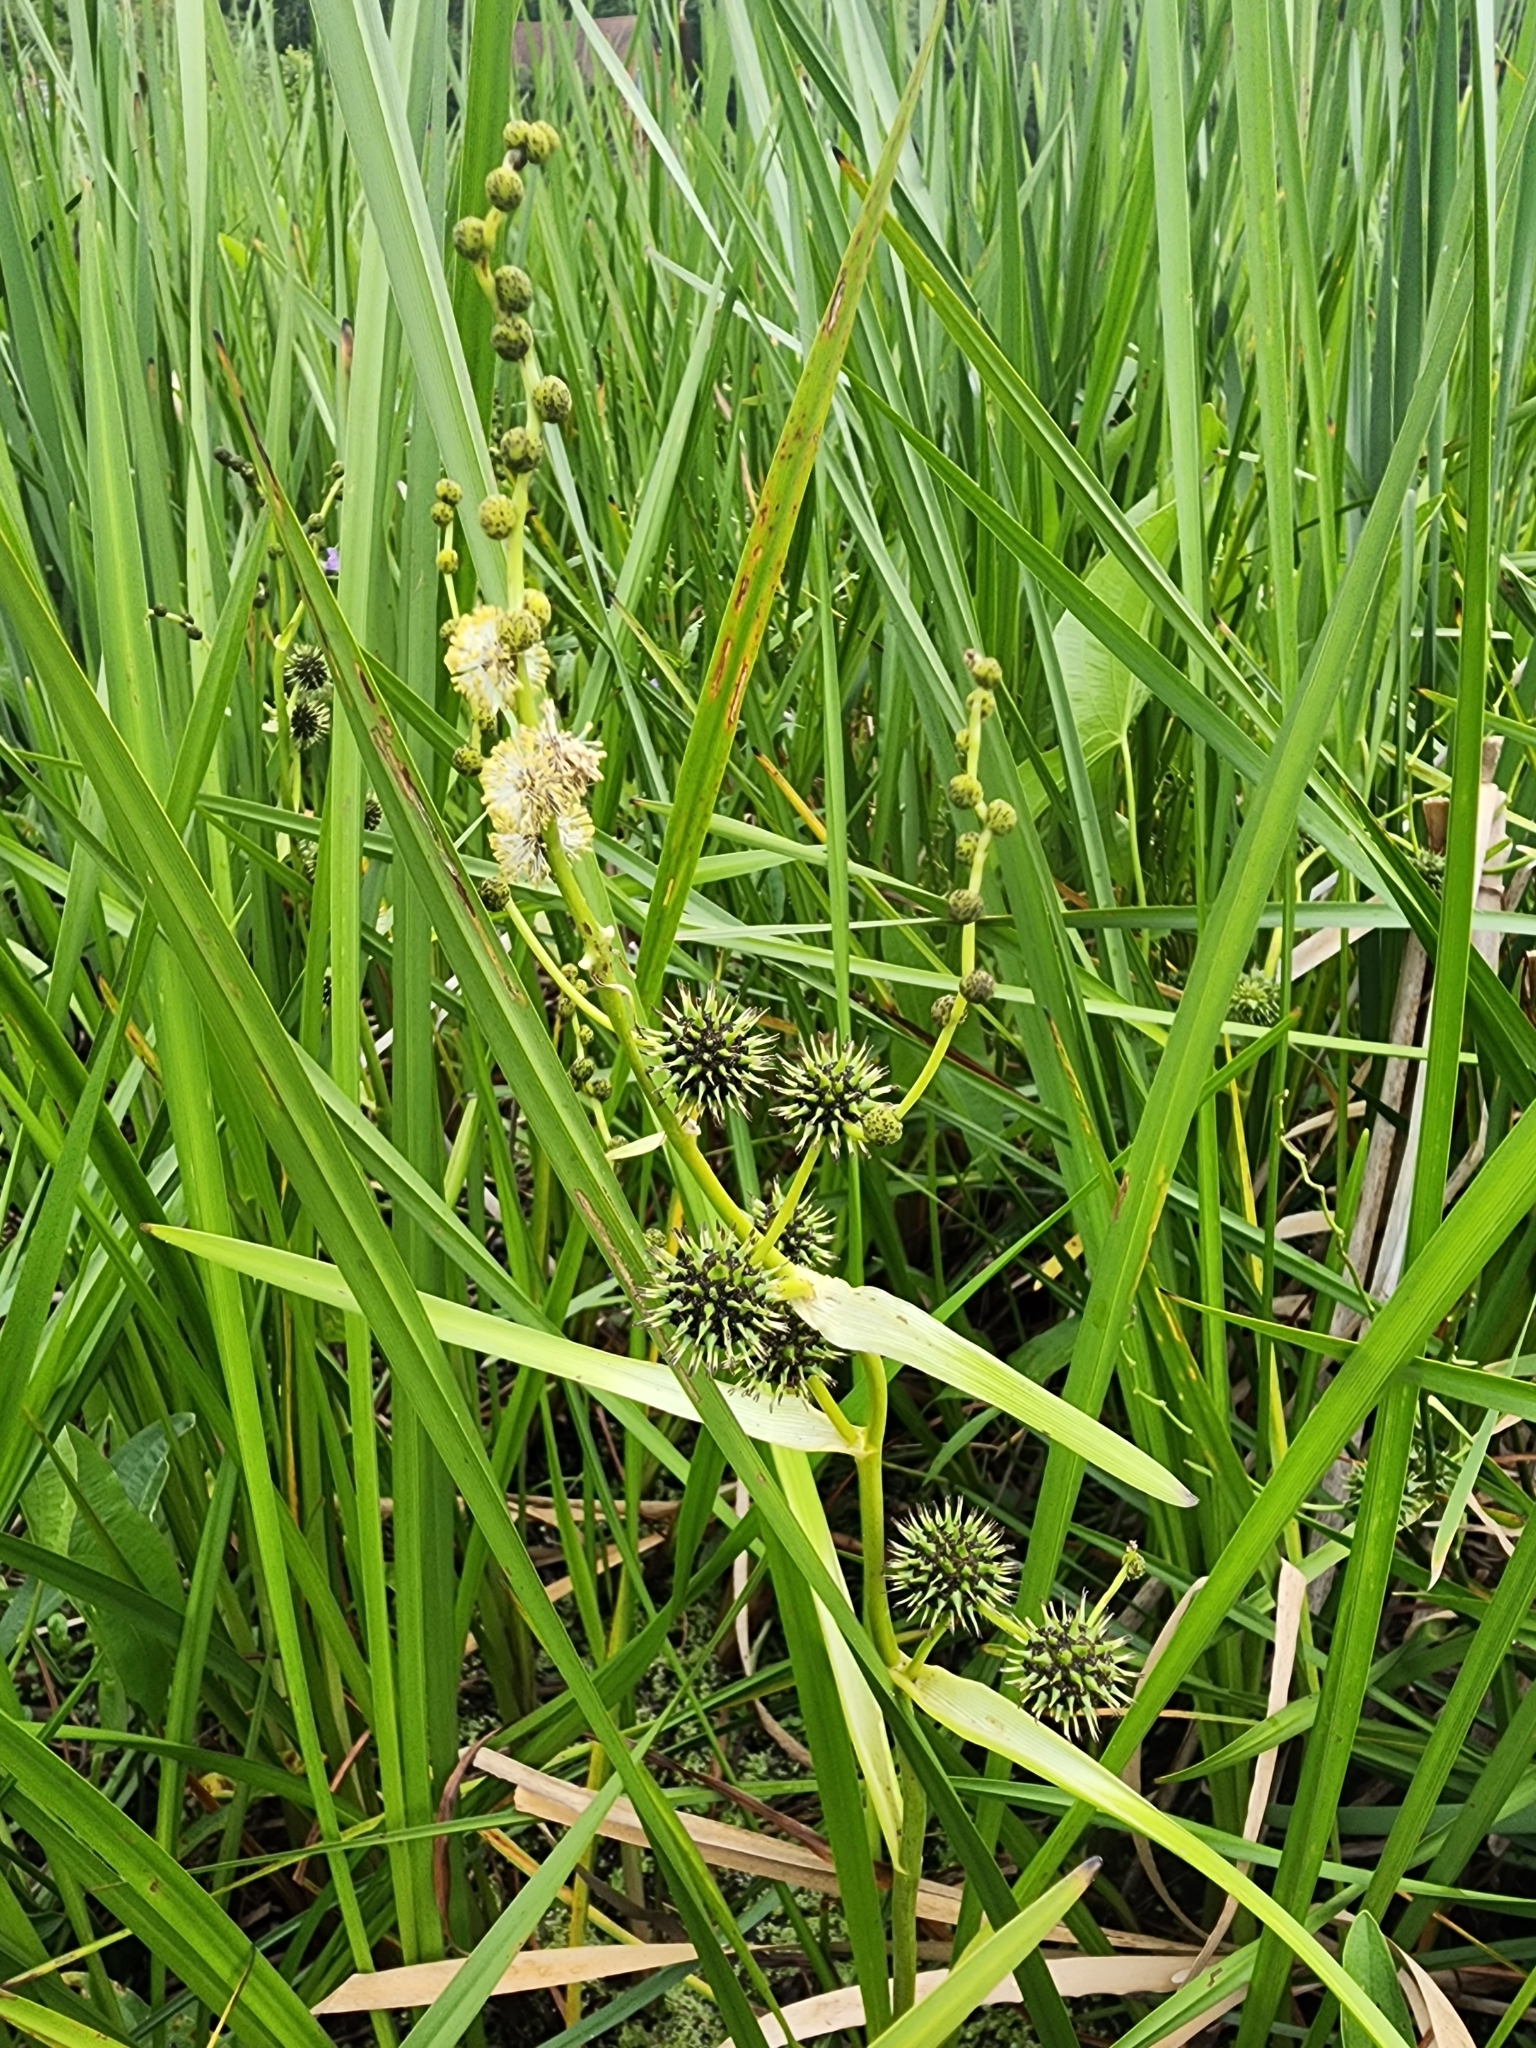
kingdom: Plantae
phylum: Tracheophyta
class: Liliopsida
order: Poales
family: Typhaceae
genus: Sparganium
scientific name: Sparganium eurycarpum
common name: Broad-fruited burreed
